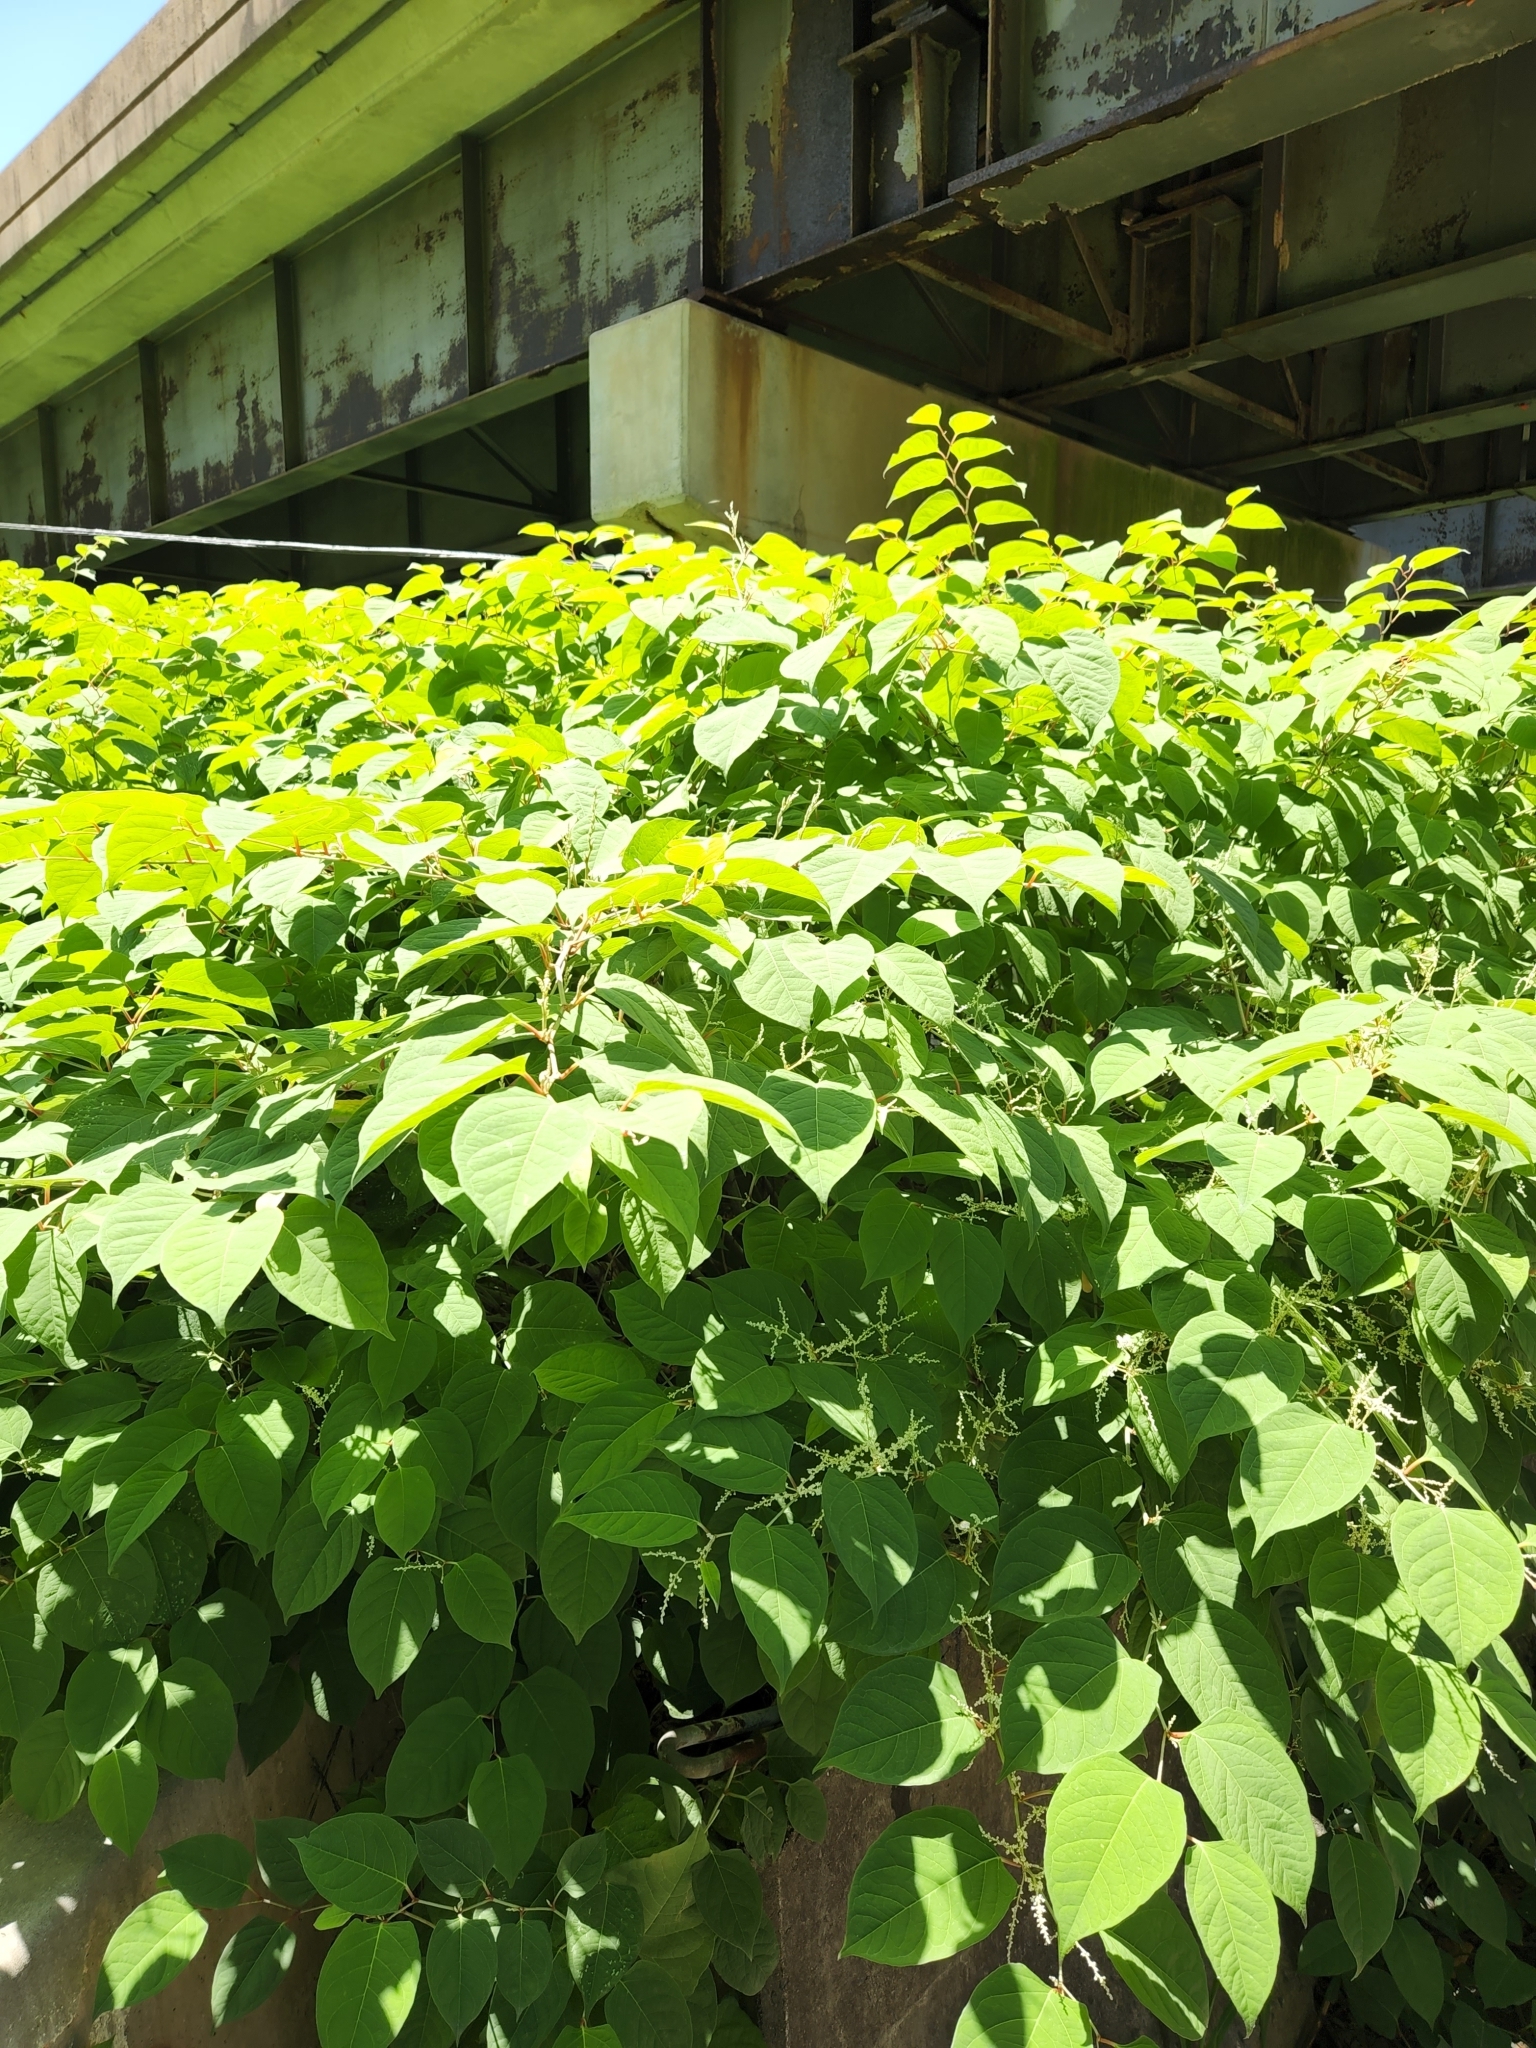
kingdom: Plantae
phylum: Tracheophyta
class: Magnoliopsida
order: Caryophyllales
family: Polygonaceae
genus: Reynoutria
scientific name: Reynoutria japonica
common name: Japanese knotweed
